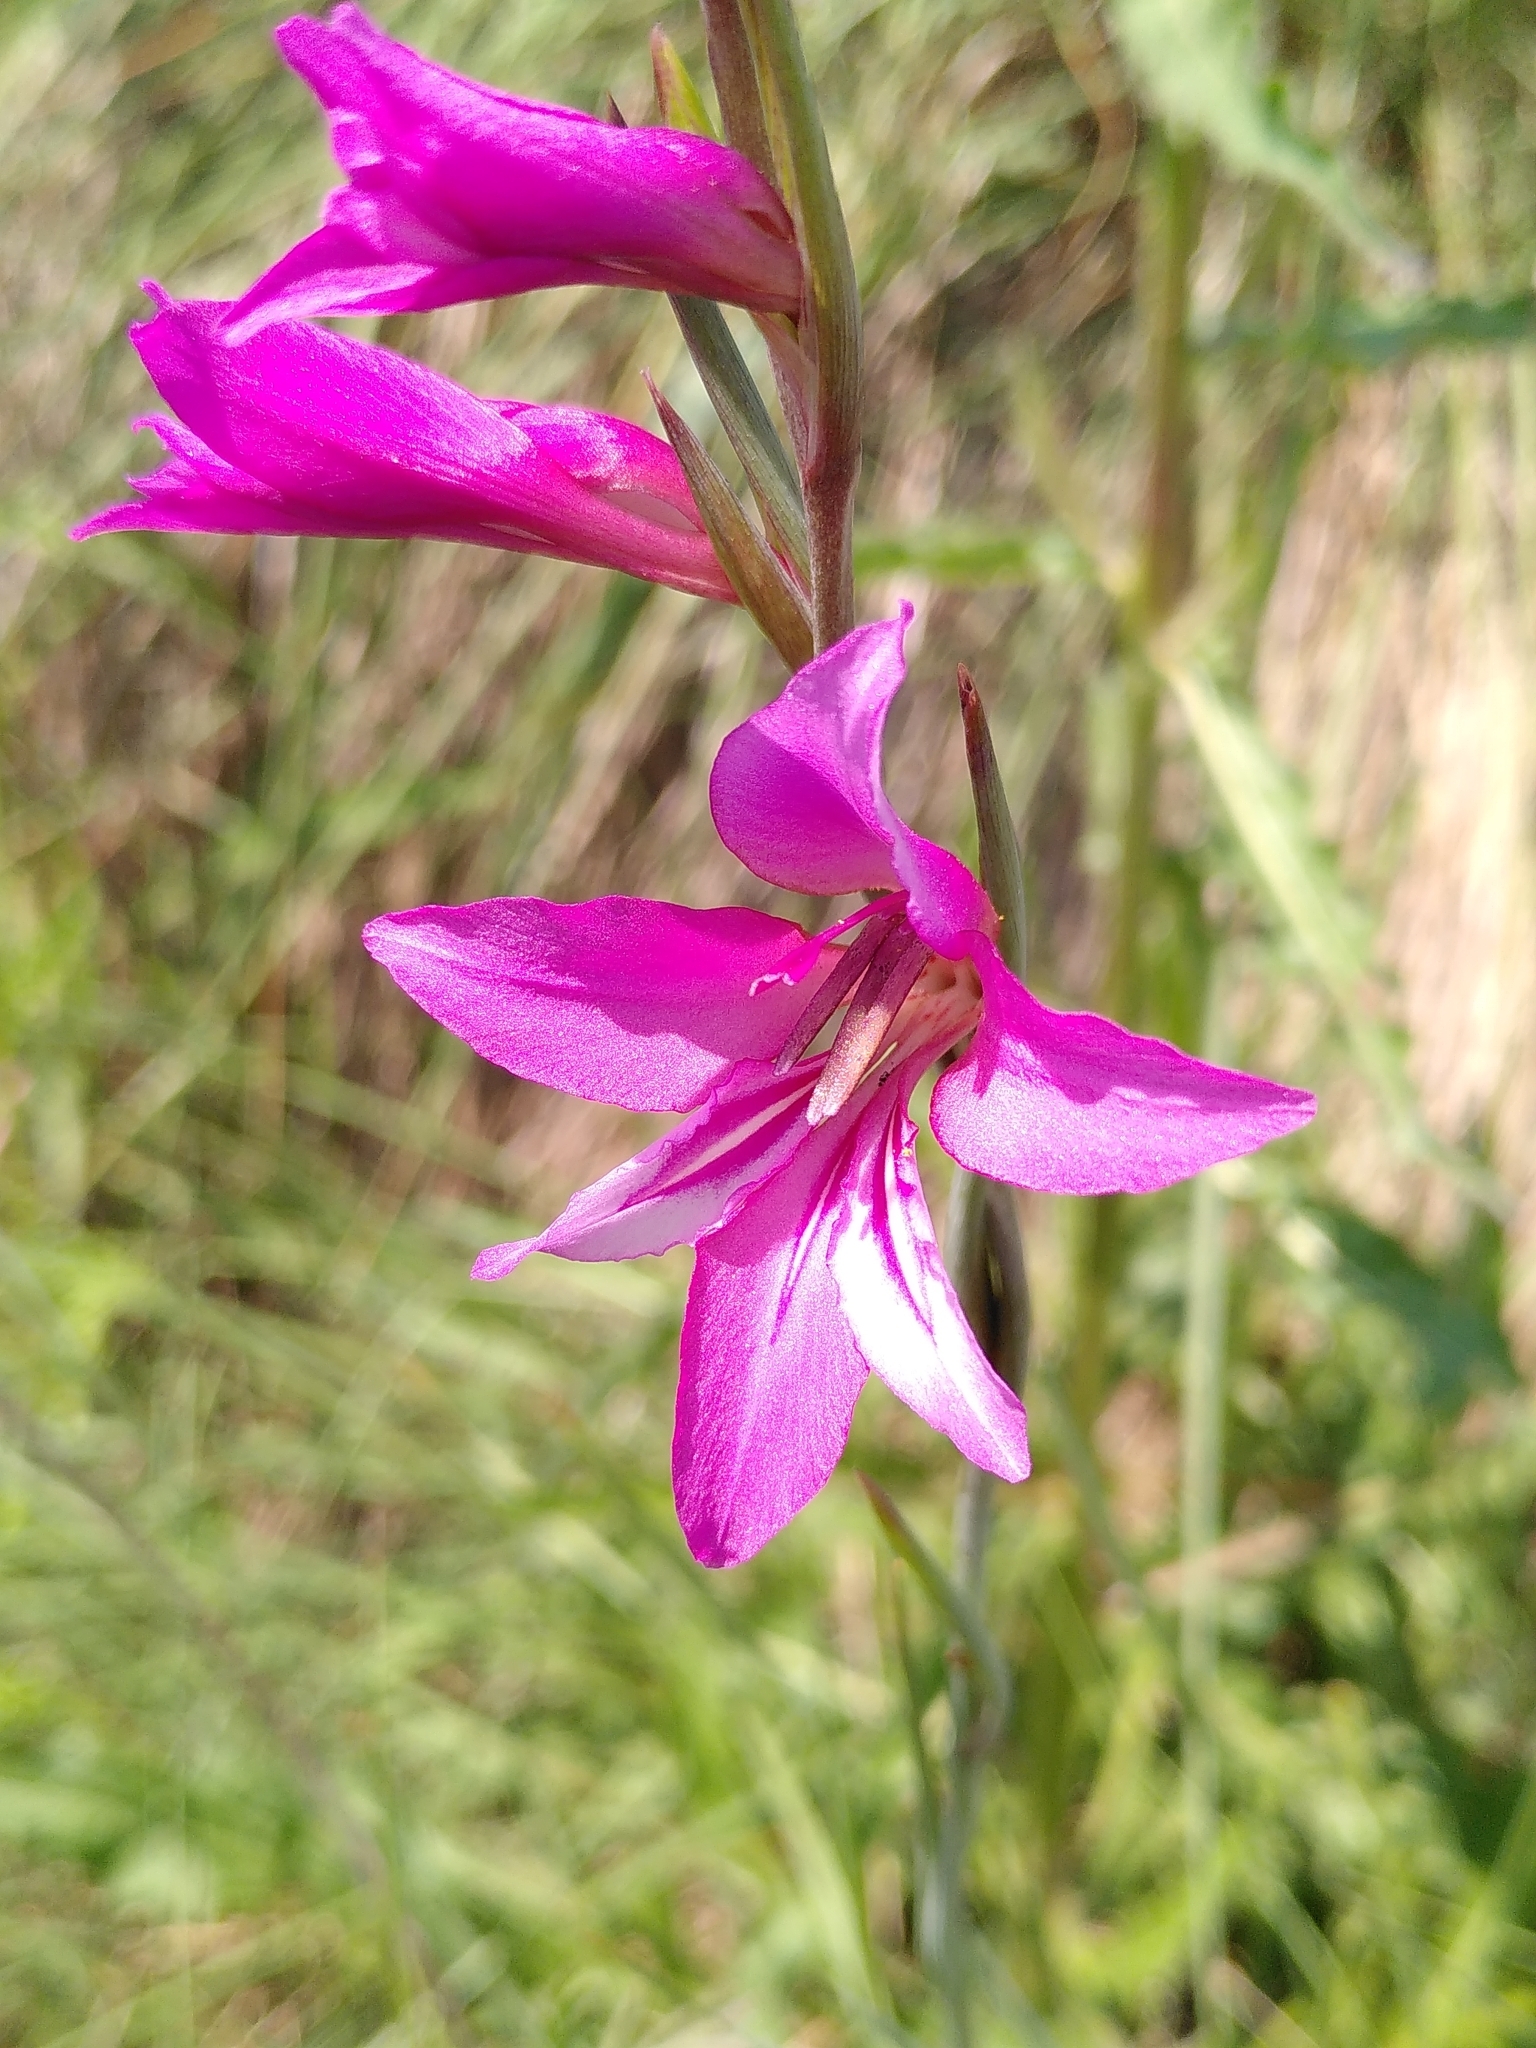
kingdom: Plantae
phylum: Tracheophyta
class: Liliopsida
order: Asparagales
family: Iridaceae
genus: Gladiolus
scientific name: Gladiolus dubius
